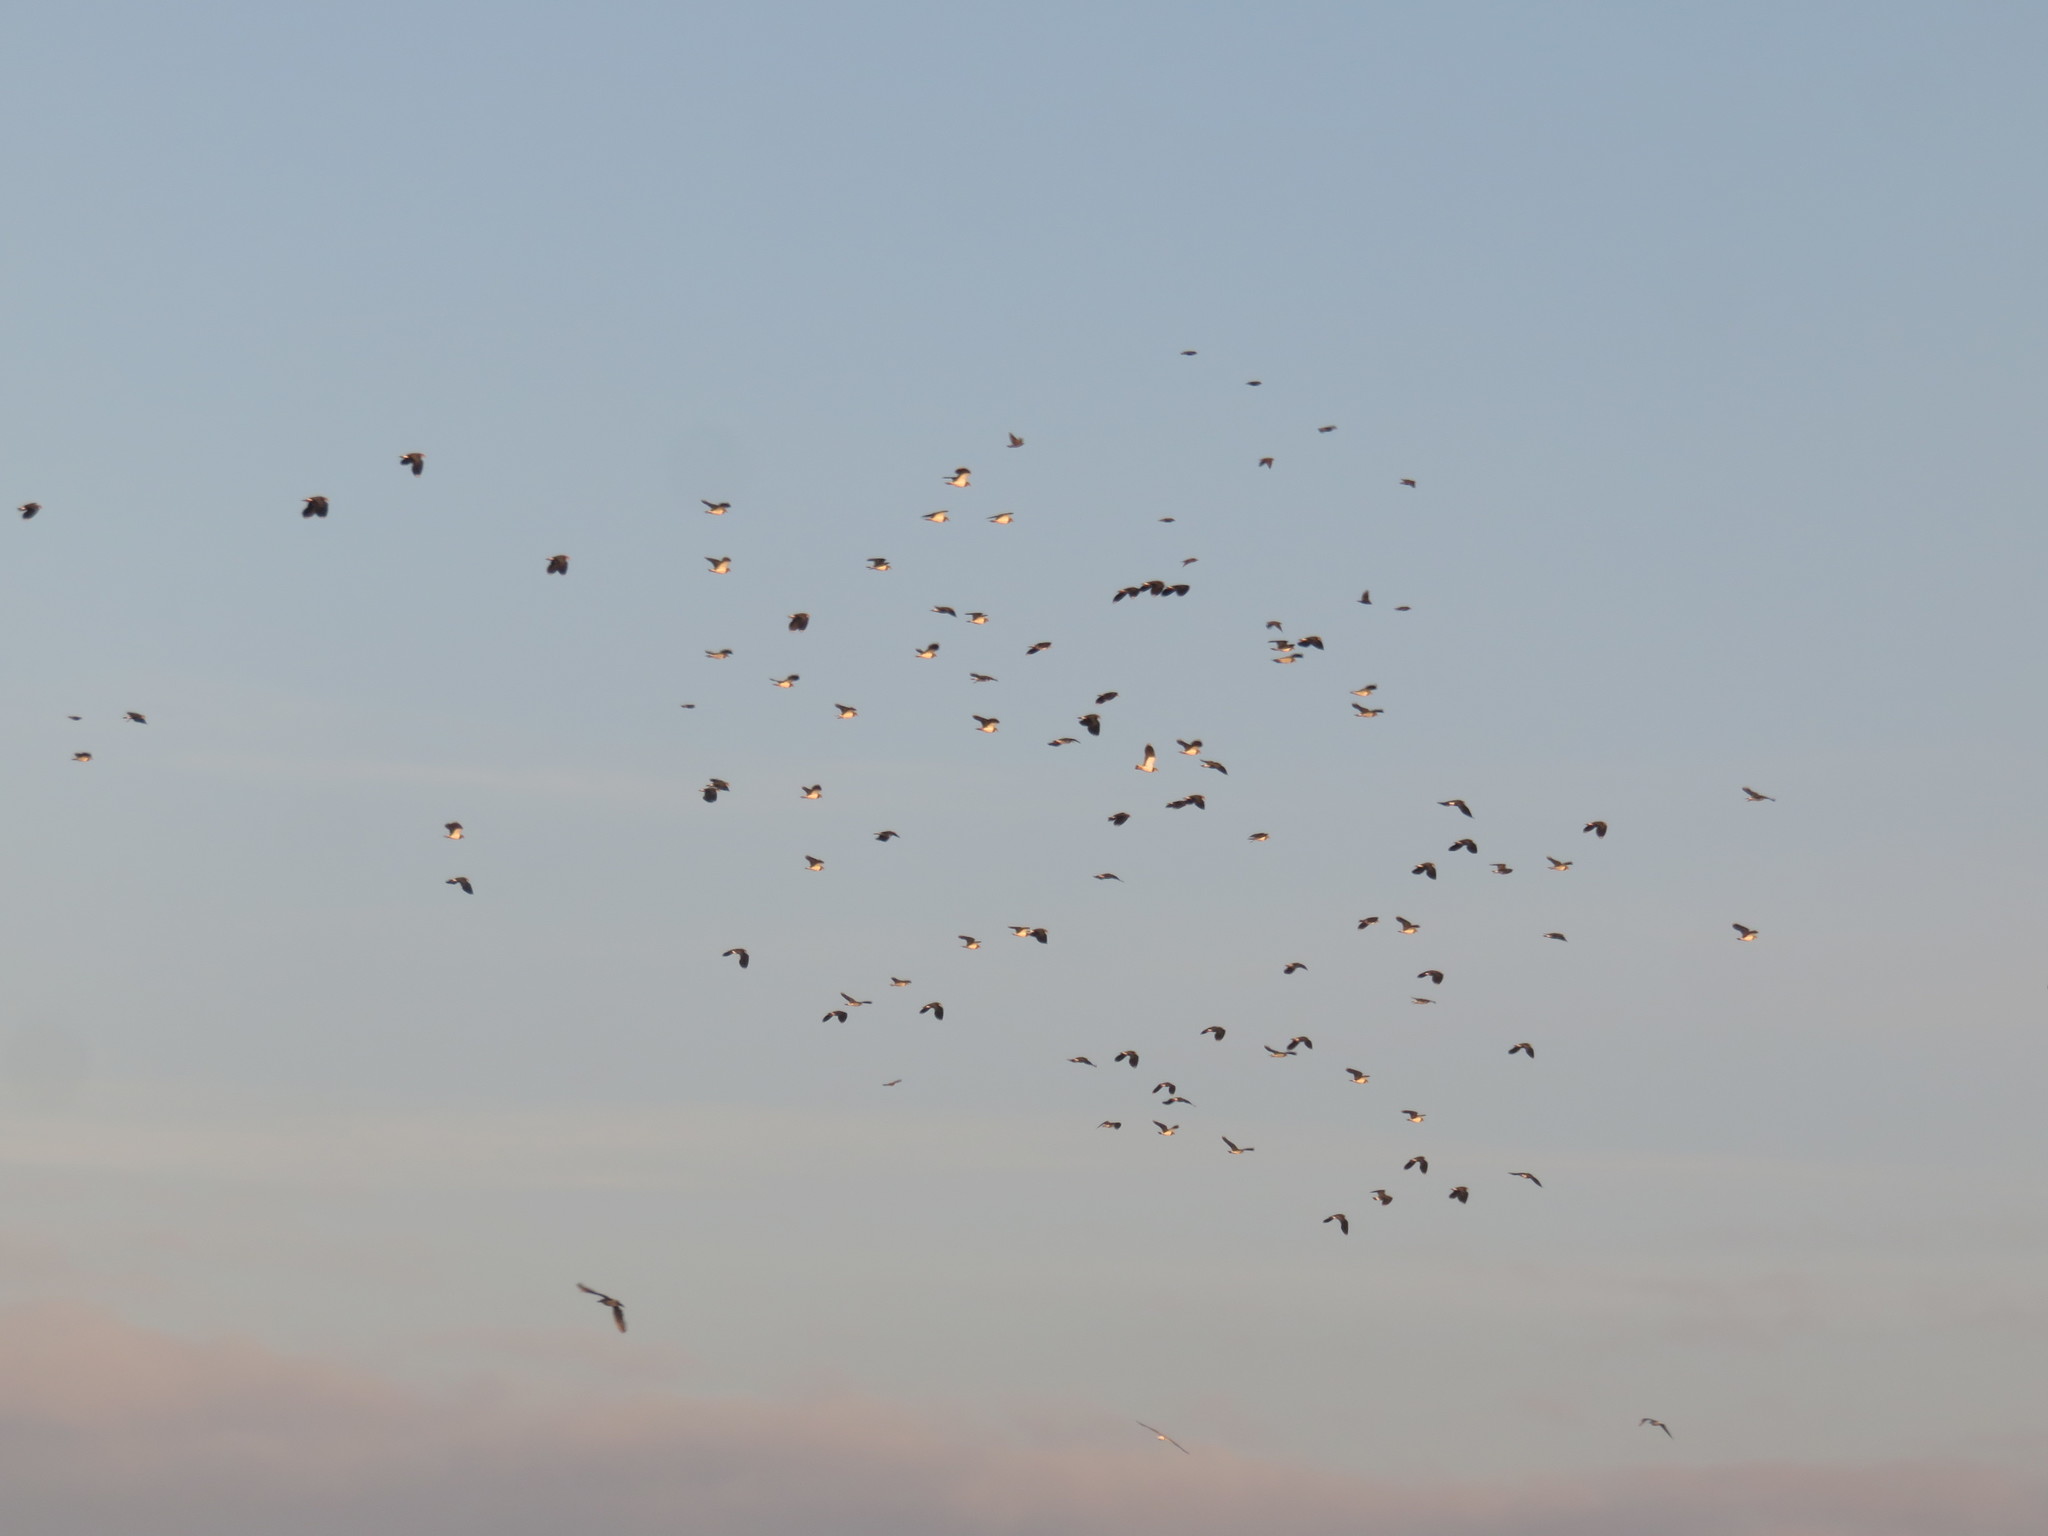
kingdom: Animalia
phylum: Chordata
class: Aves
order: Charadriiformes
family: Charadriidae
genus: Vanellus
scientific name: Vanellus vanellus
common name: Northern lapwing
